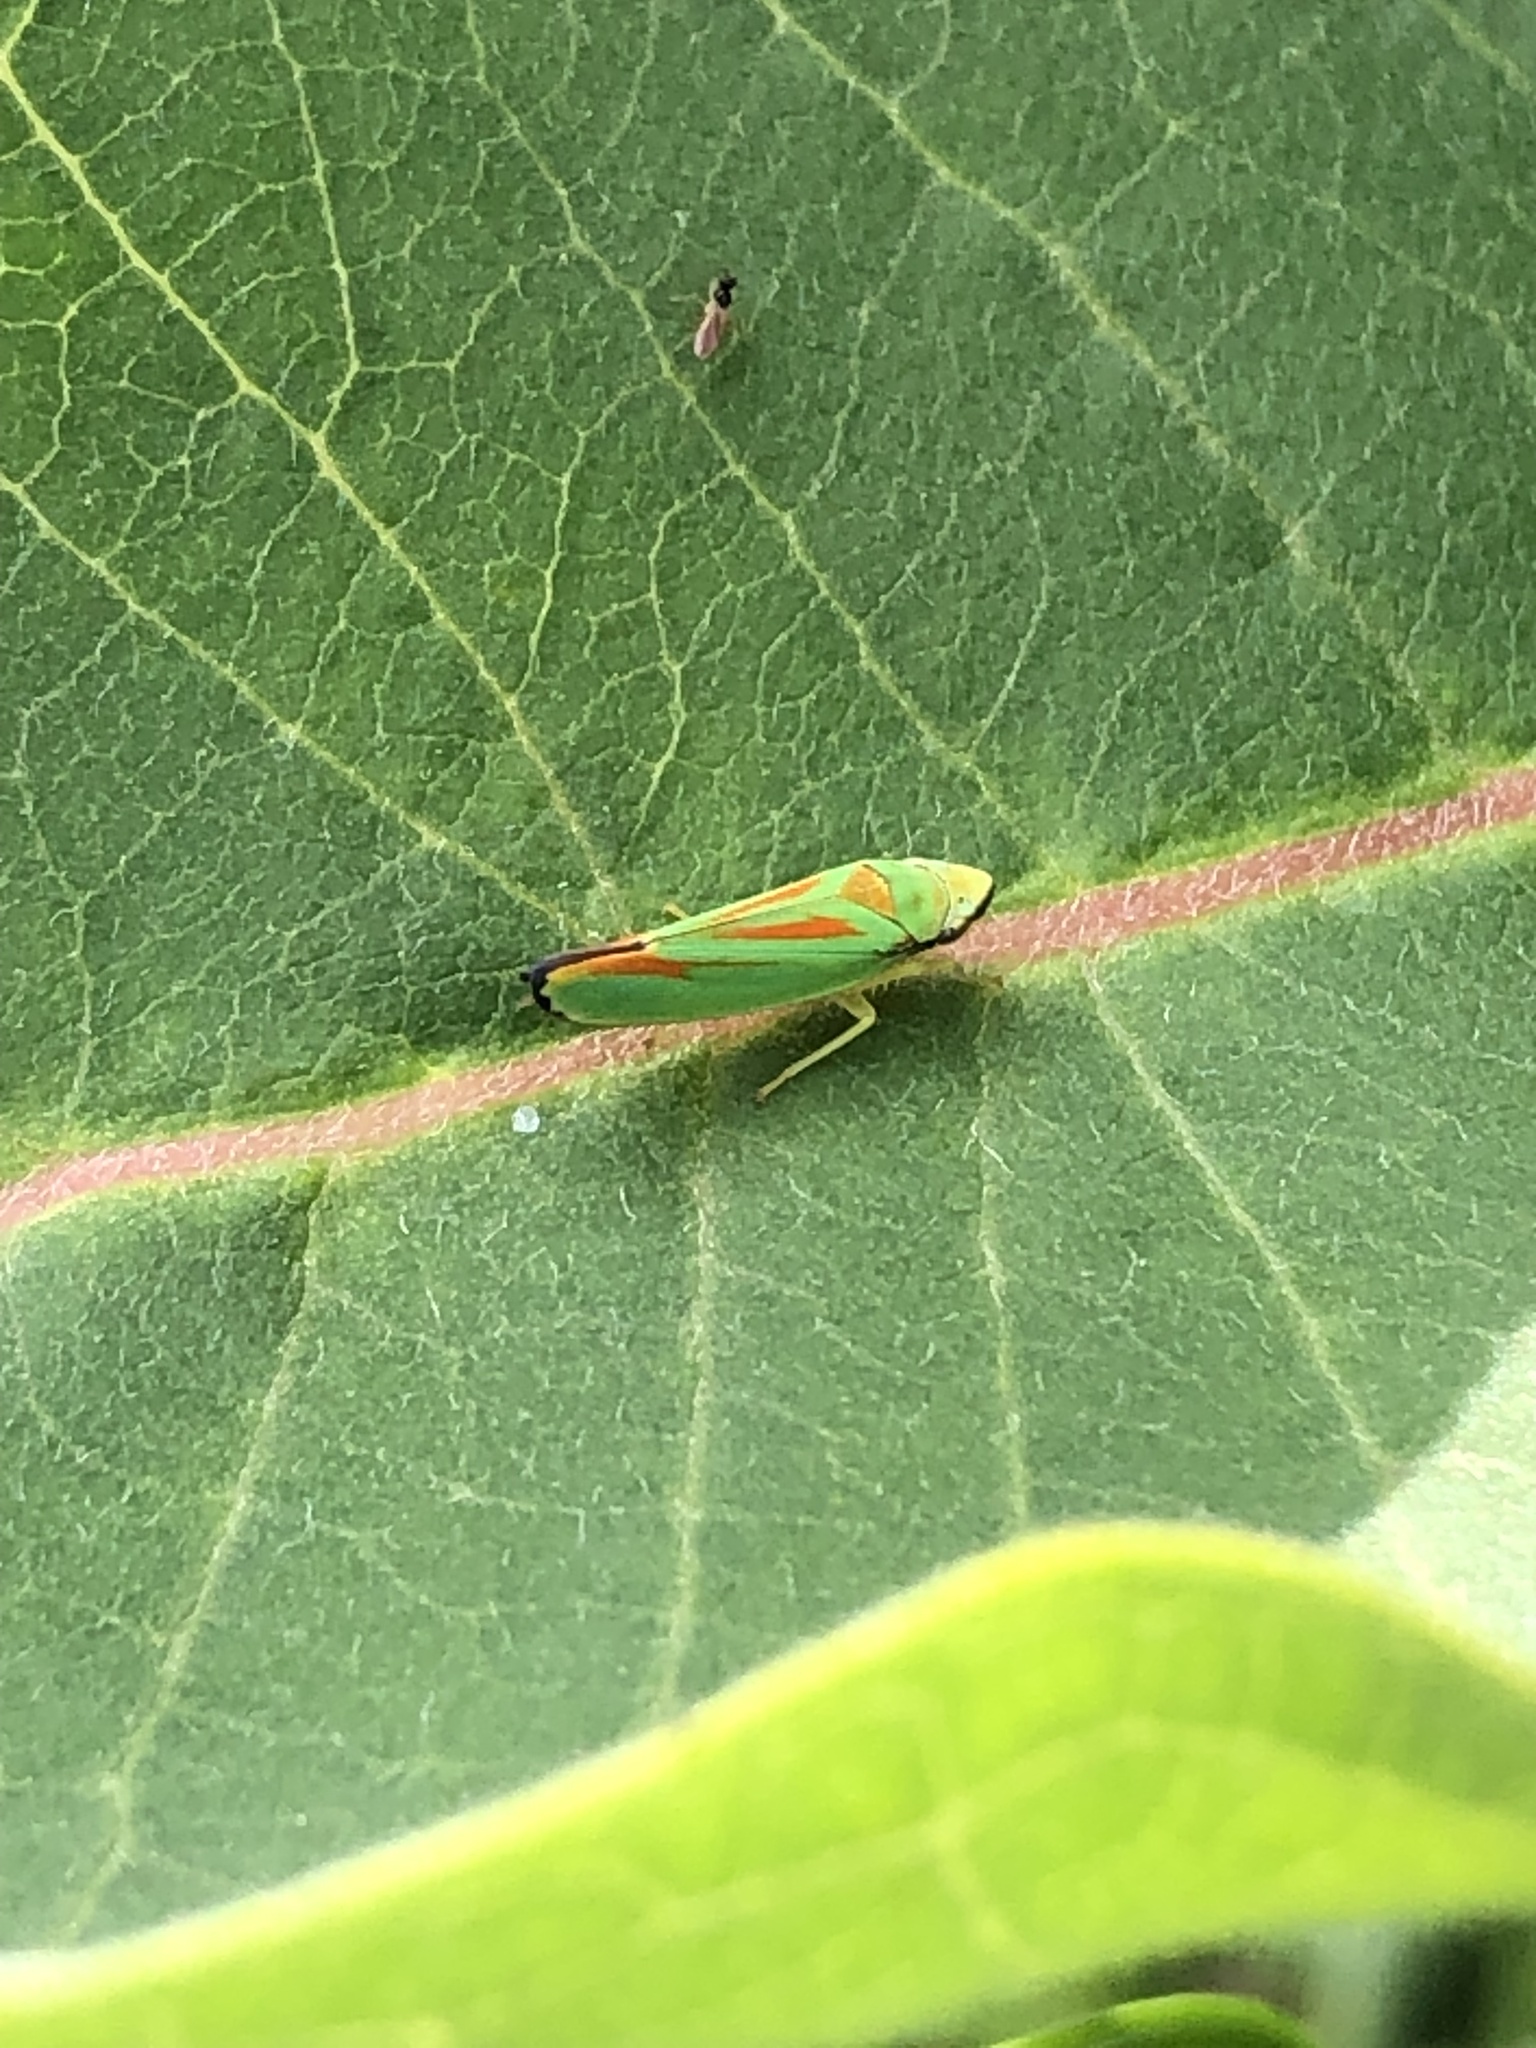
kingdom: Animalia
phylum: Arthropoda
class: Insecta
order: Hemiptera
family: Cicadellidae
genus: Graphocephala
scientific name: Graphocephala fennahi
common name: Rhododendron leafhopper
